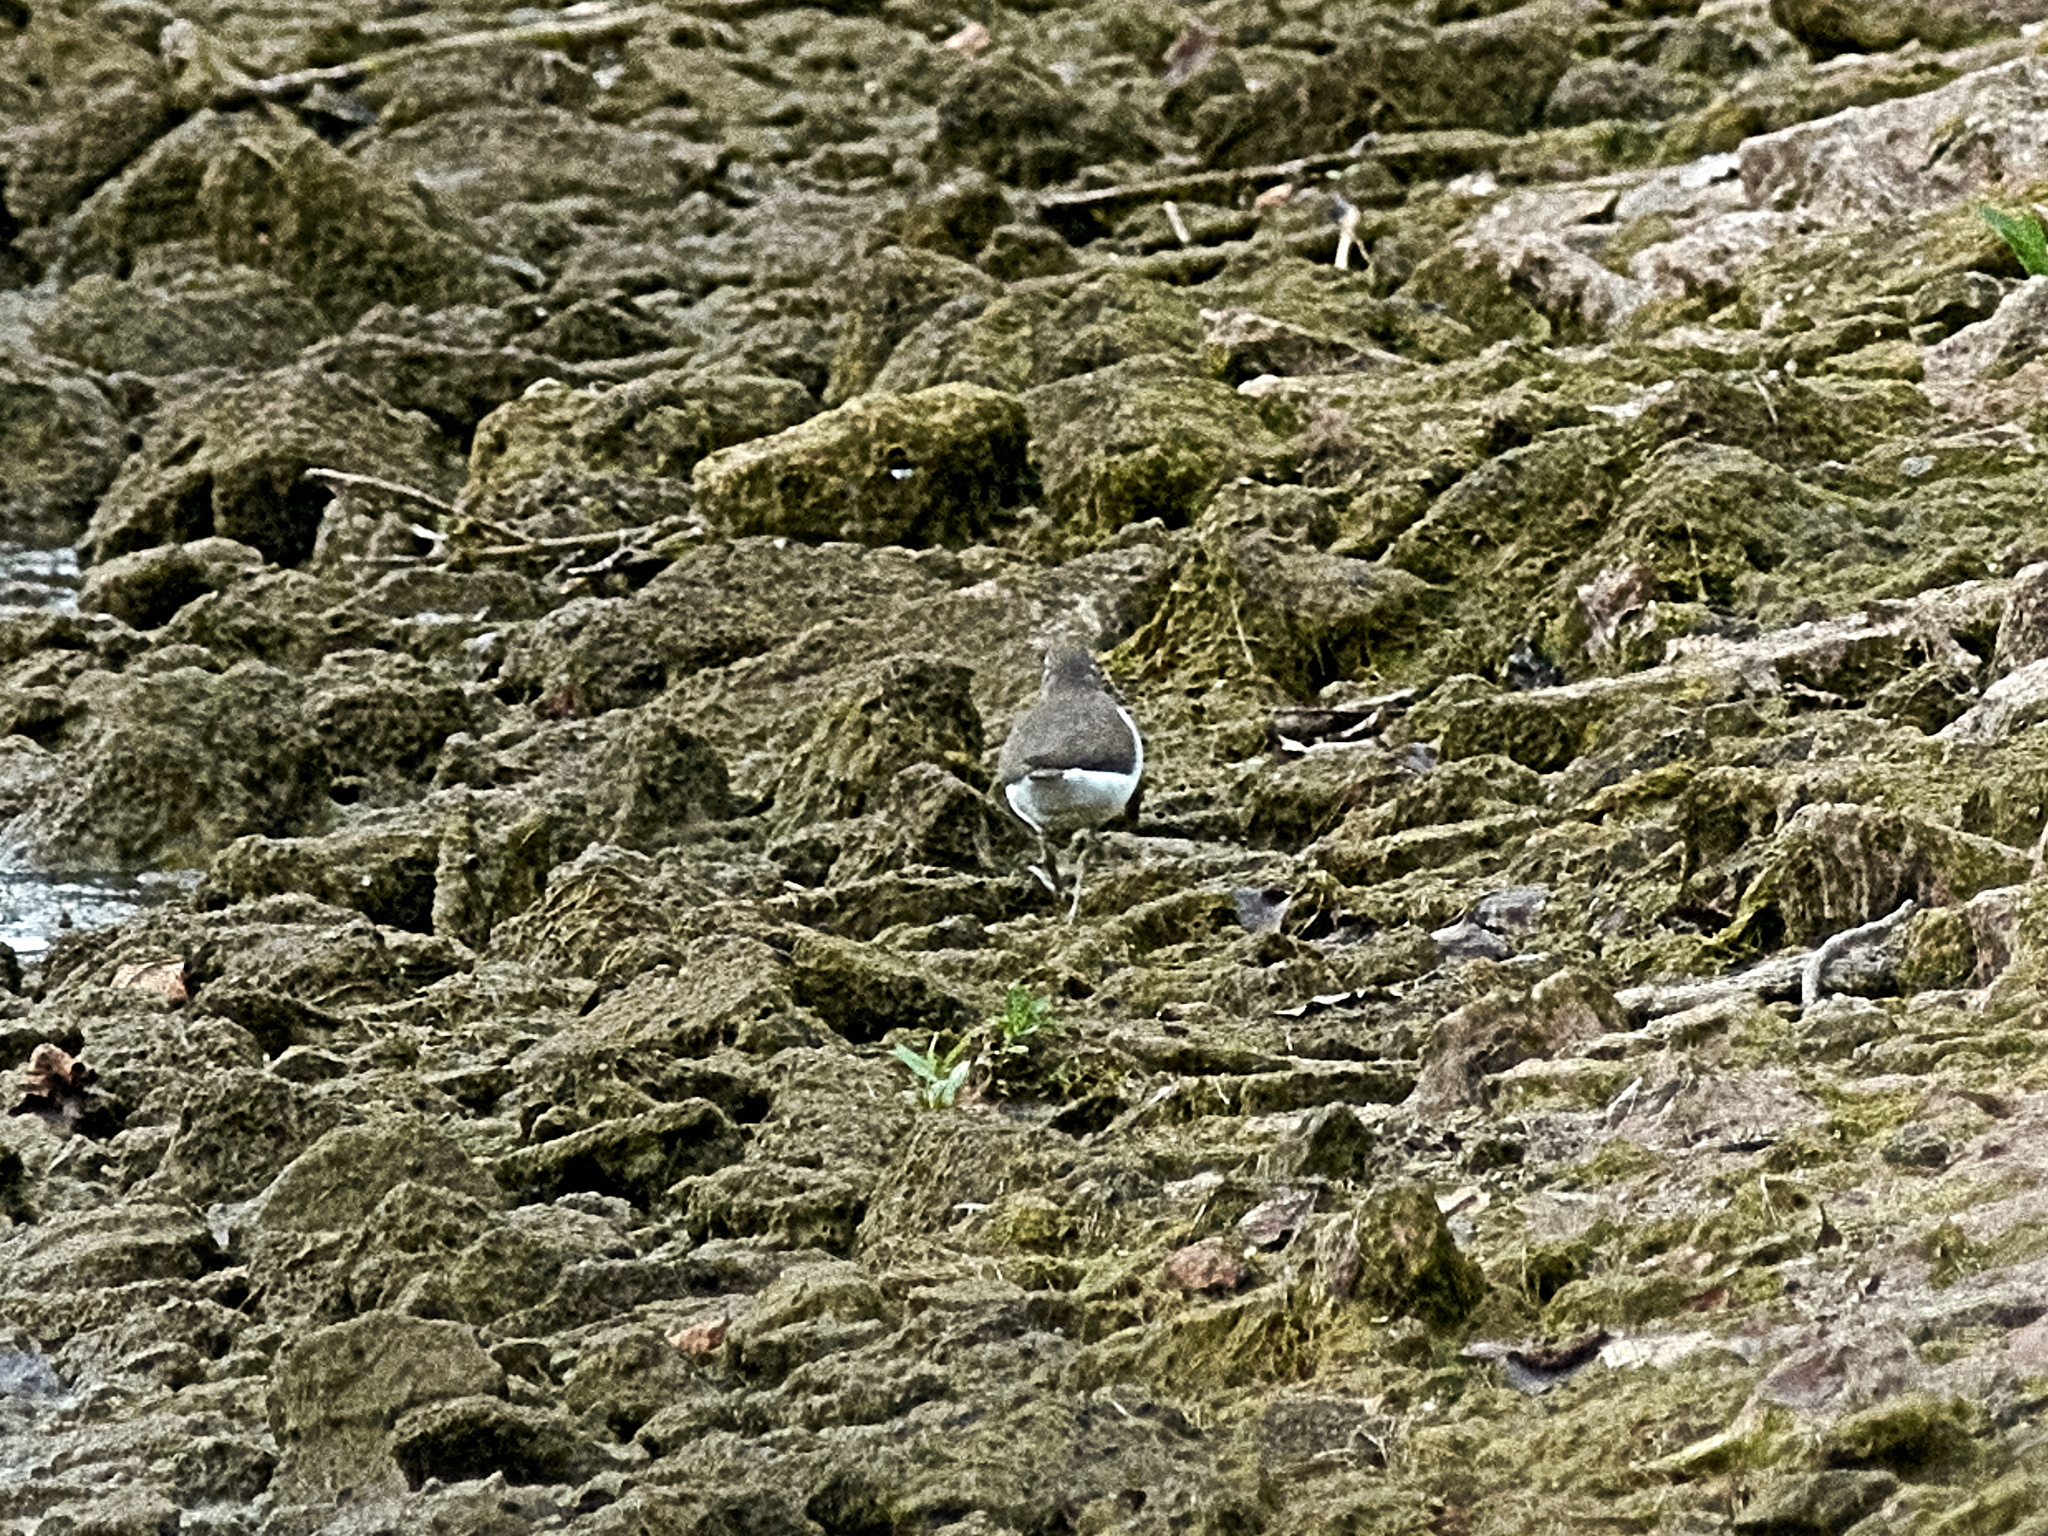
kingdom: Animalia
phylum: Chordata
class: Aves
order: Charadriiformes
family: Scolopacidae
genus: Actitis
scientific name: Actitis hypoleucos
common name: Common sandpiper
